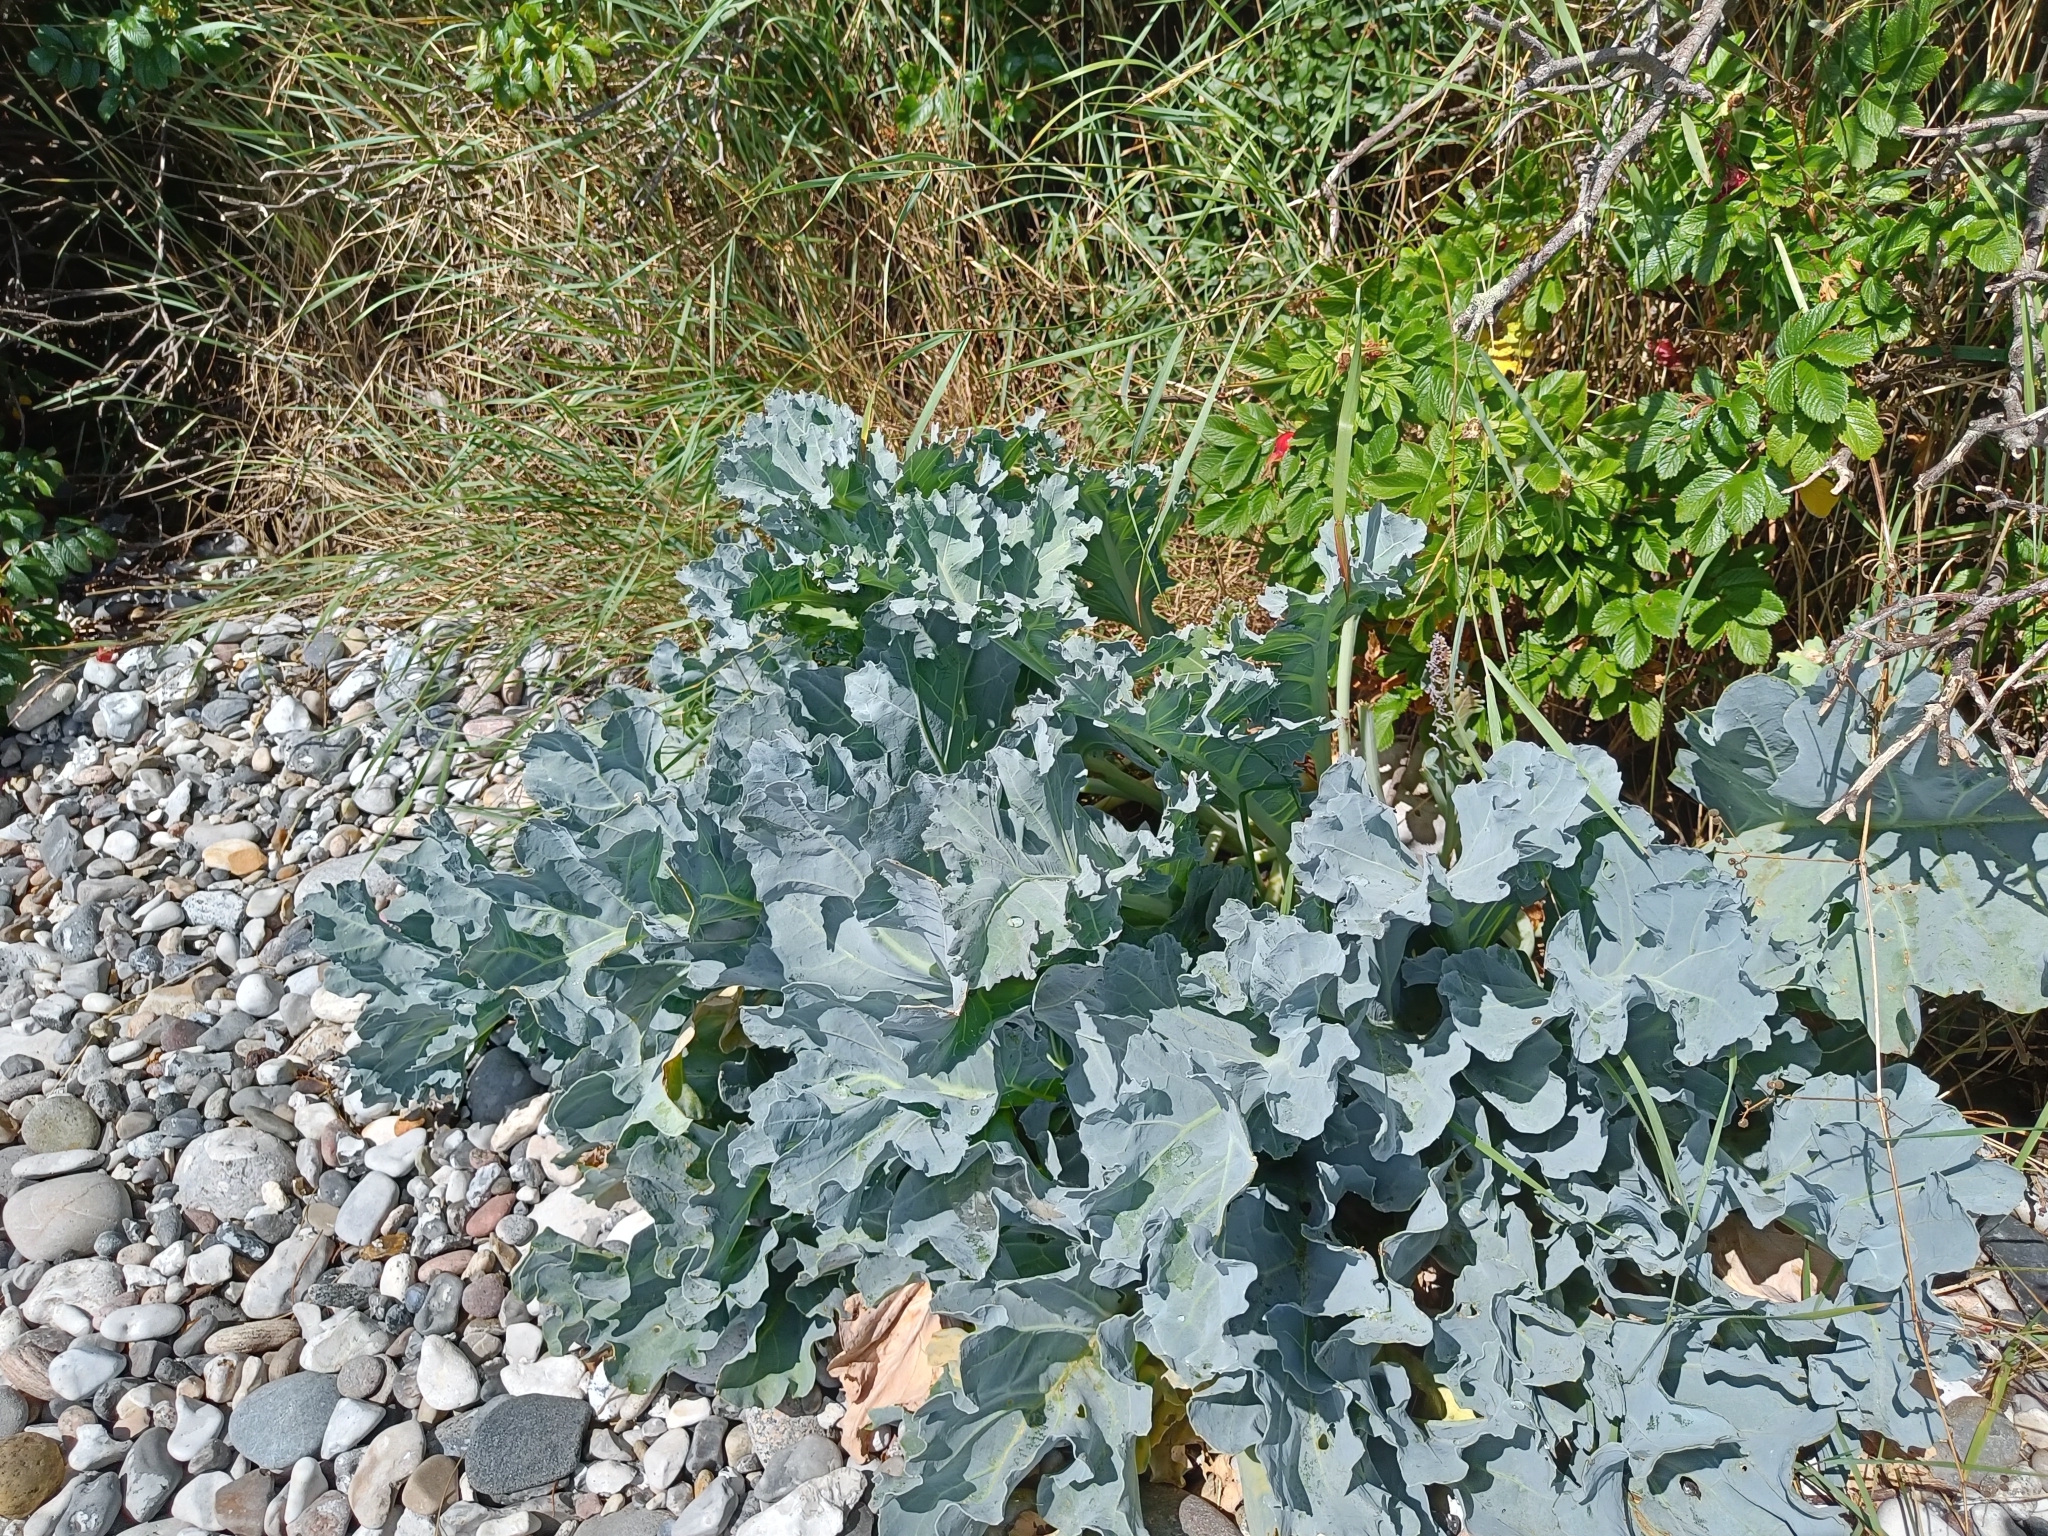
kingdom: Plantae
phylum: Tracheophyta
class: Magnoliopsida
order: Brassicales
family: Brassicaceae
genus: Crambe
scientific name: Crambe maritima
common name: Sea-kale
